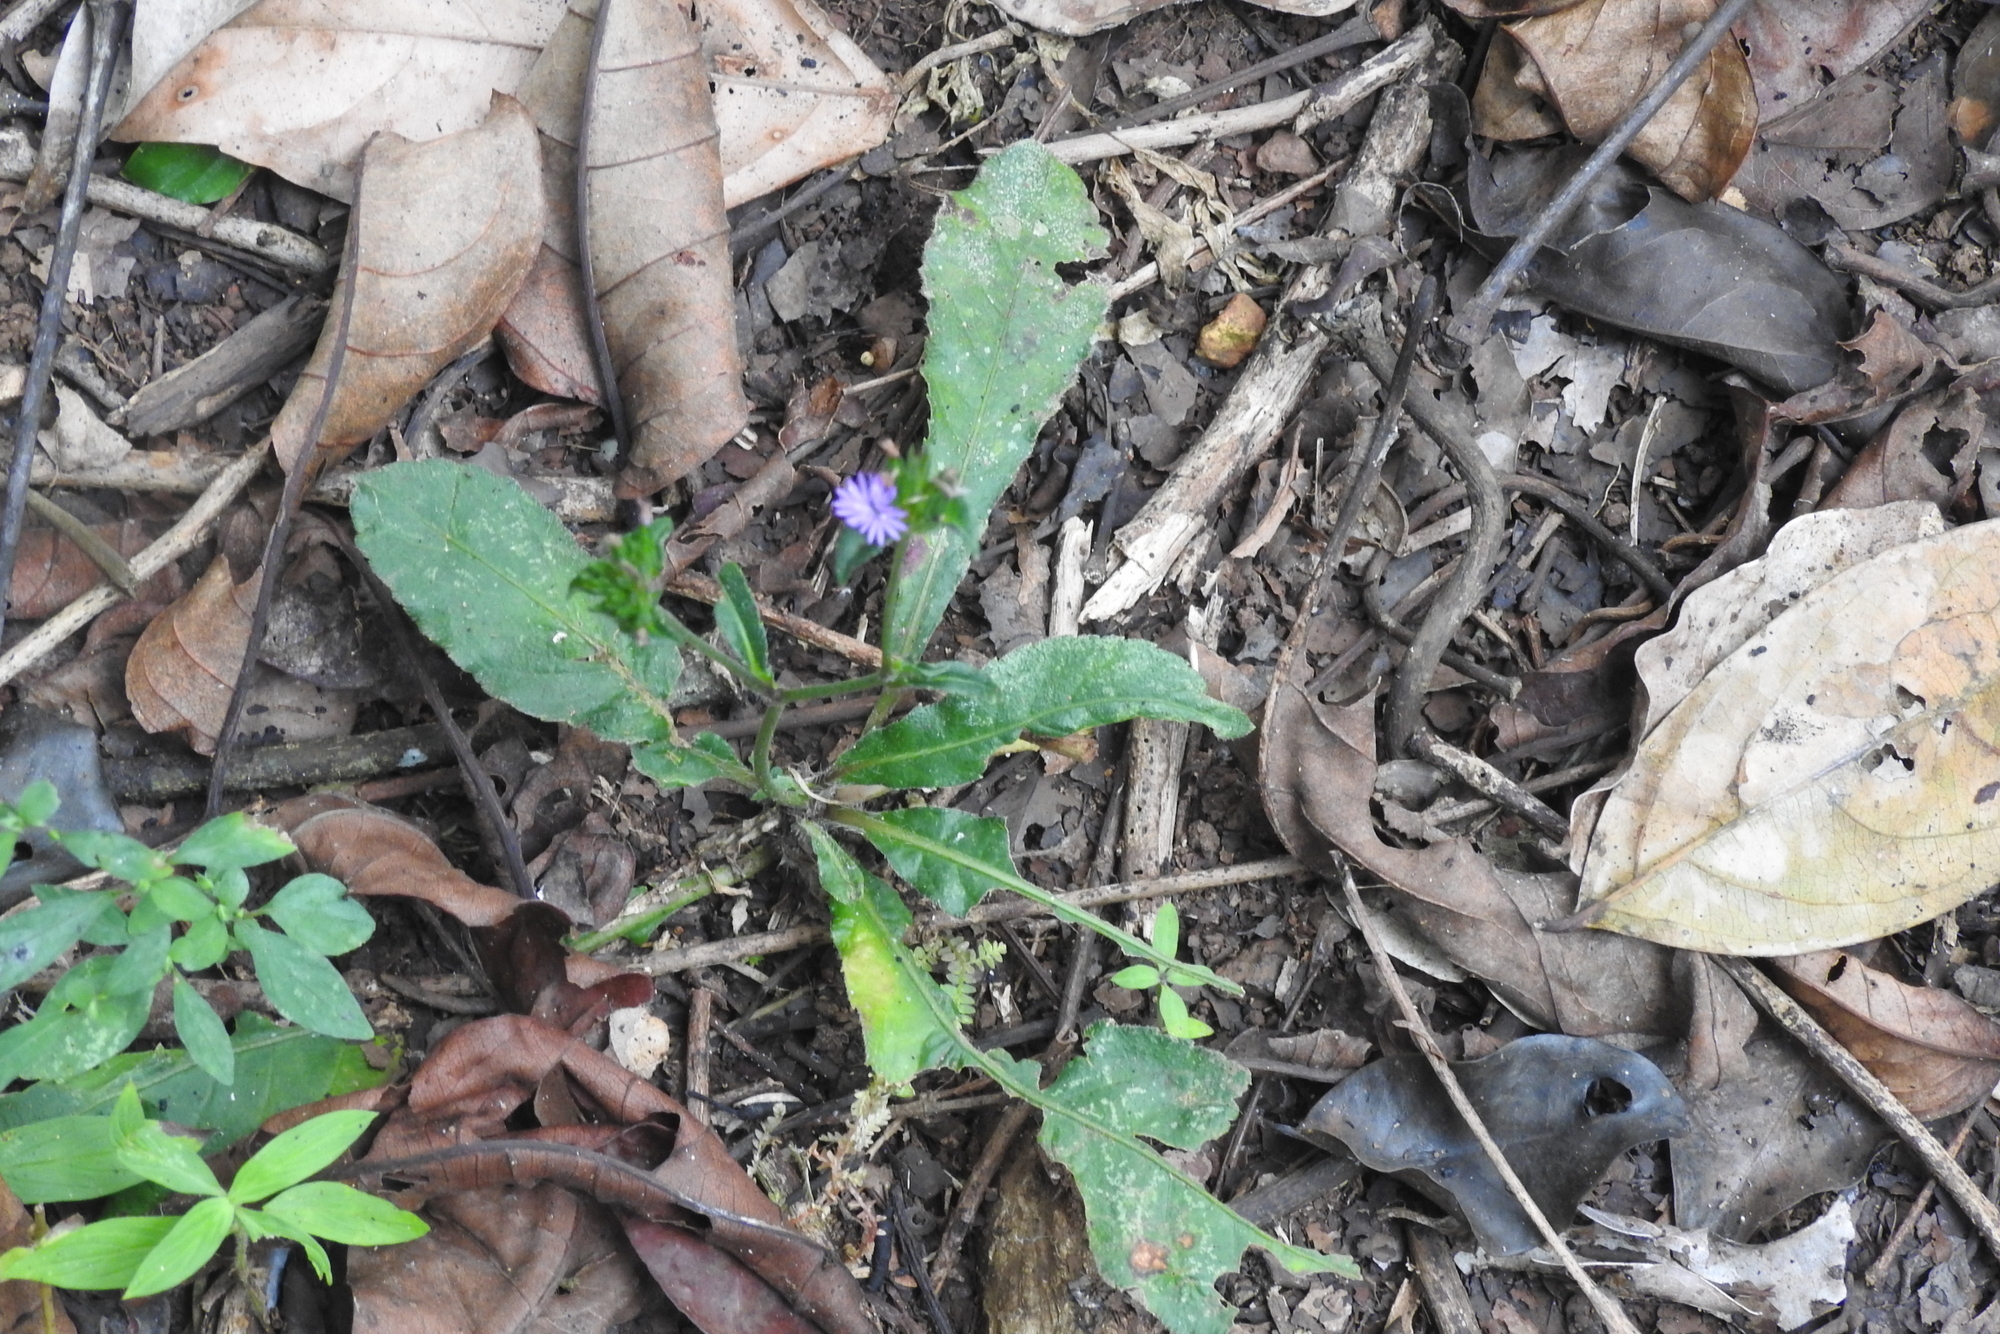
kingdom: Plantae
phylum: Tracheophyta
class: Magnoliopsida
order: Asterales
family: Asteraceae
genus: Elephantopus
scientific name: Elephantopus scaber
